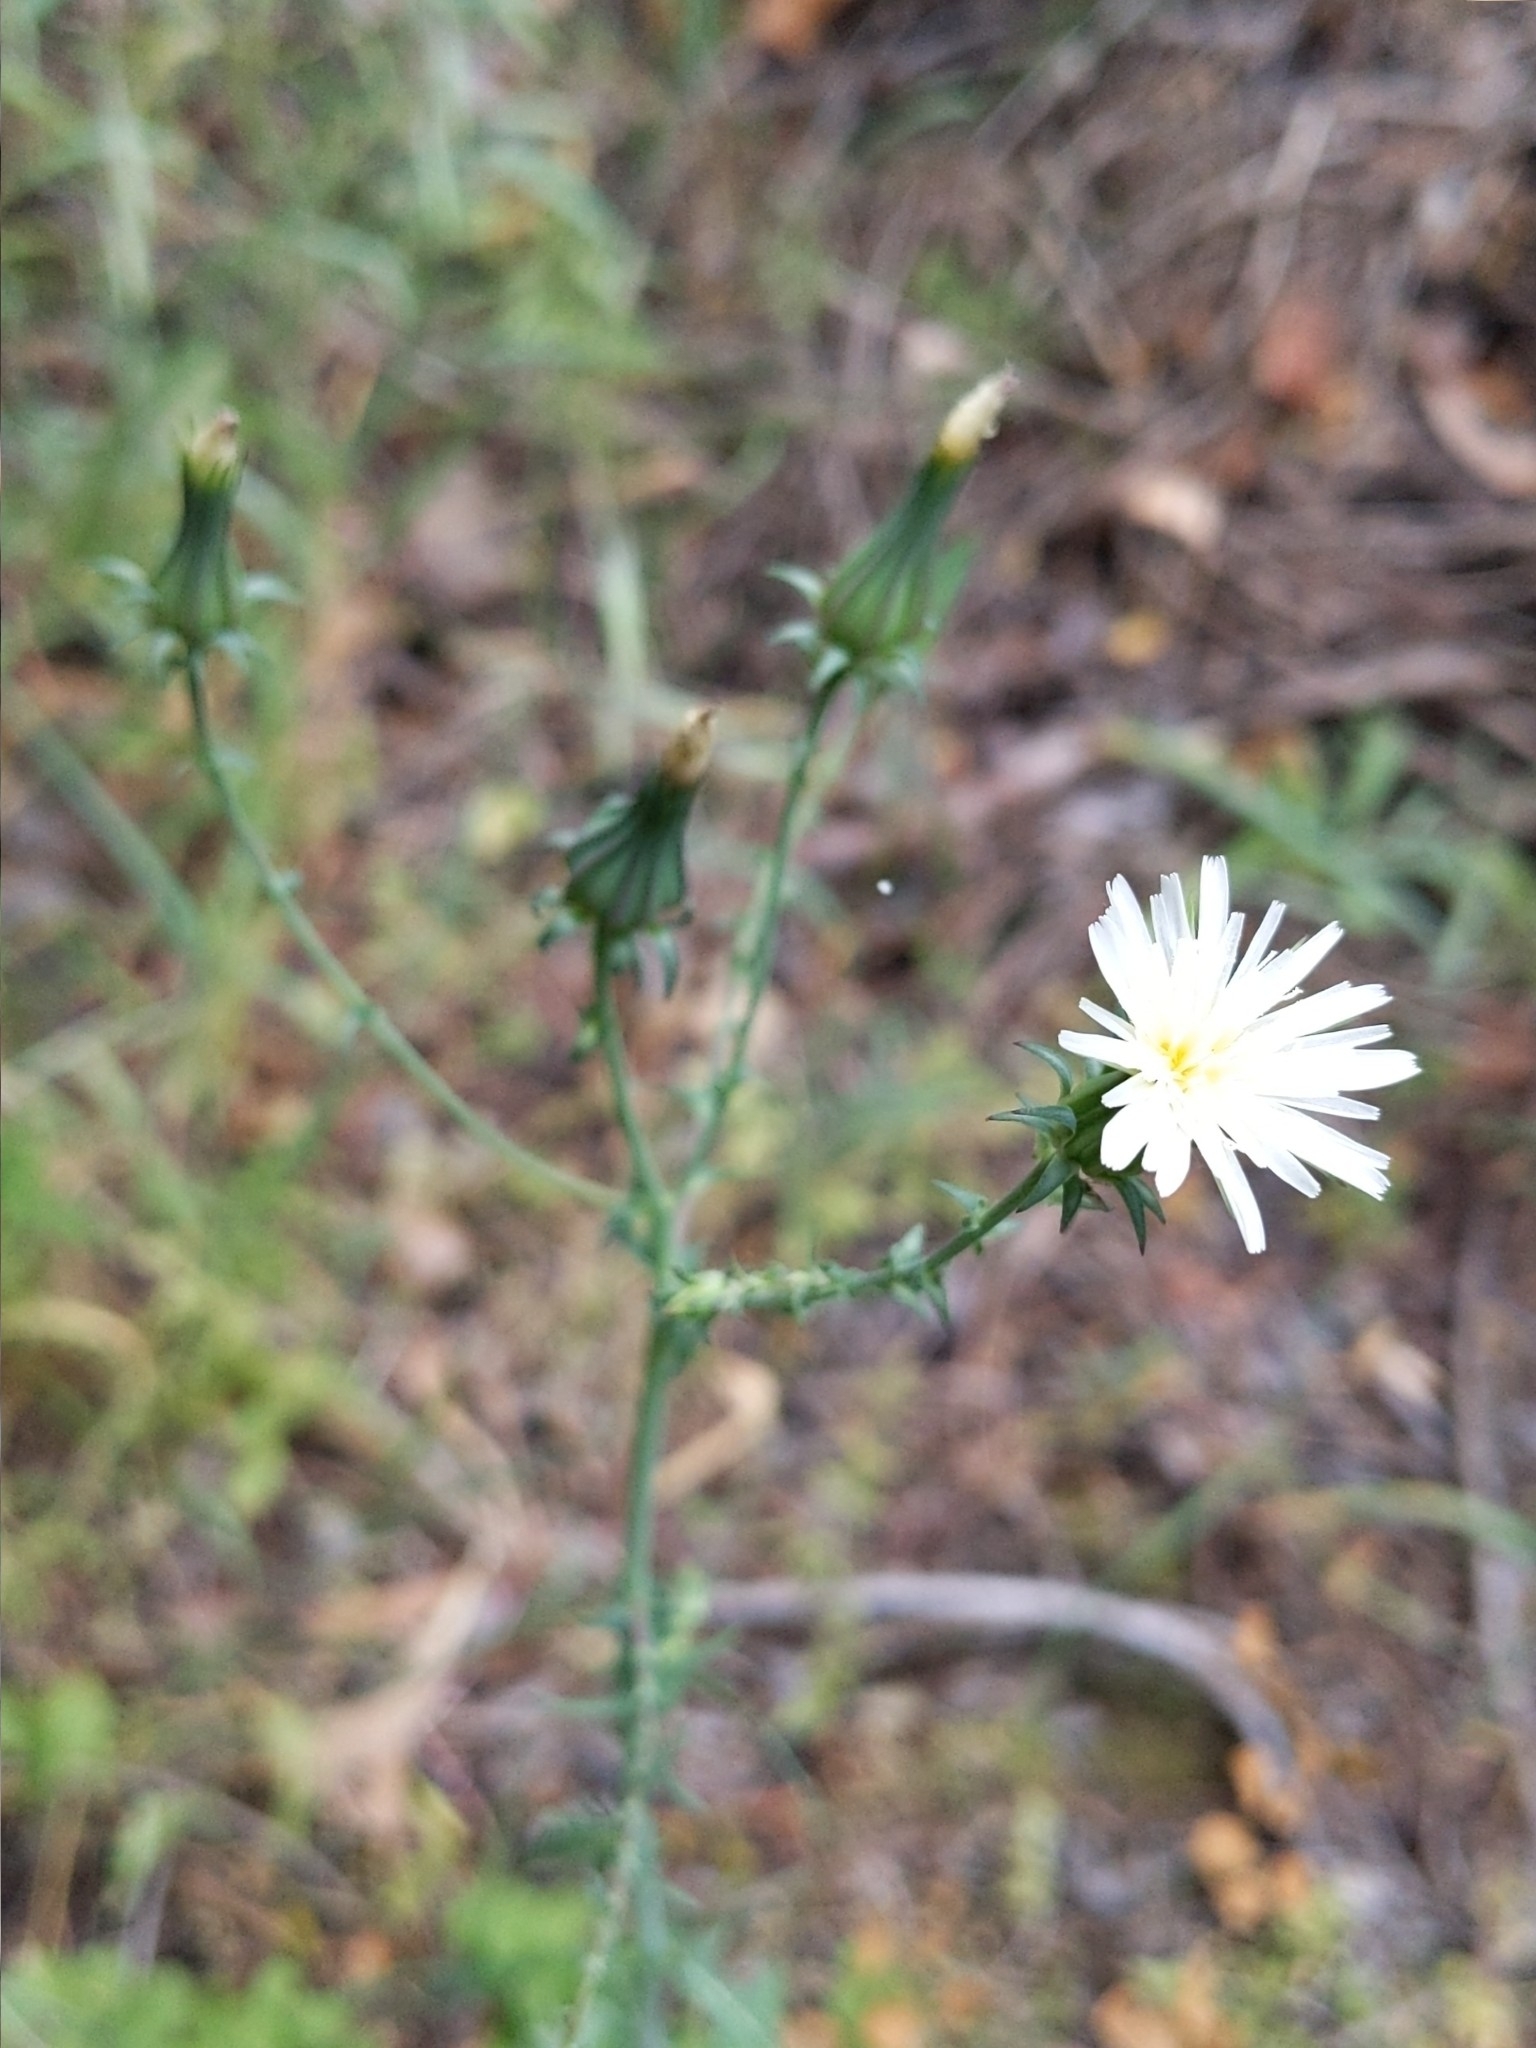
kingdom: Plantae
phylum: Tracheophyta
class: Magnoliopsida
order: Asterales
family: Asteraceae
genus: Rafinesquia
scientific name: Rafinesquia californica
